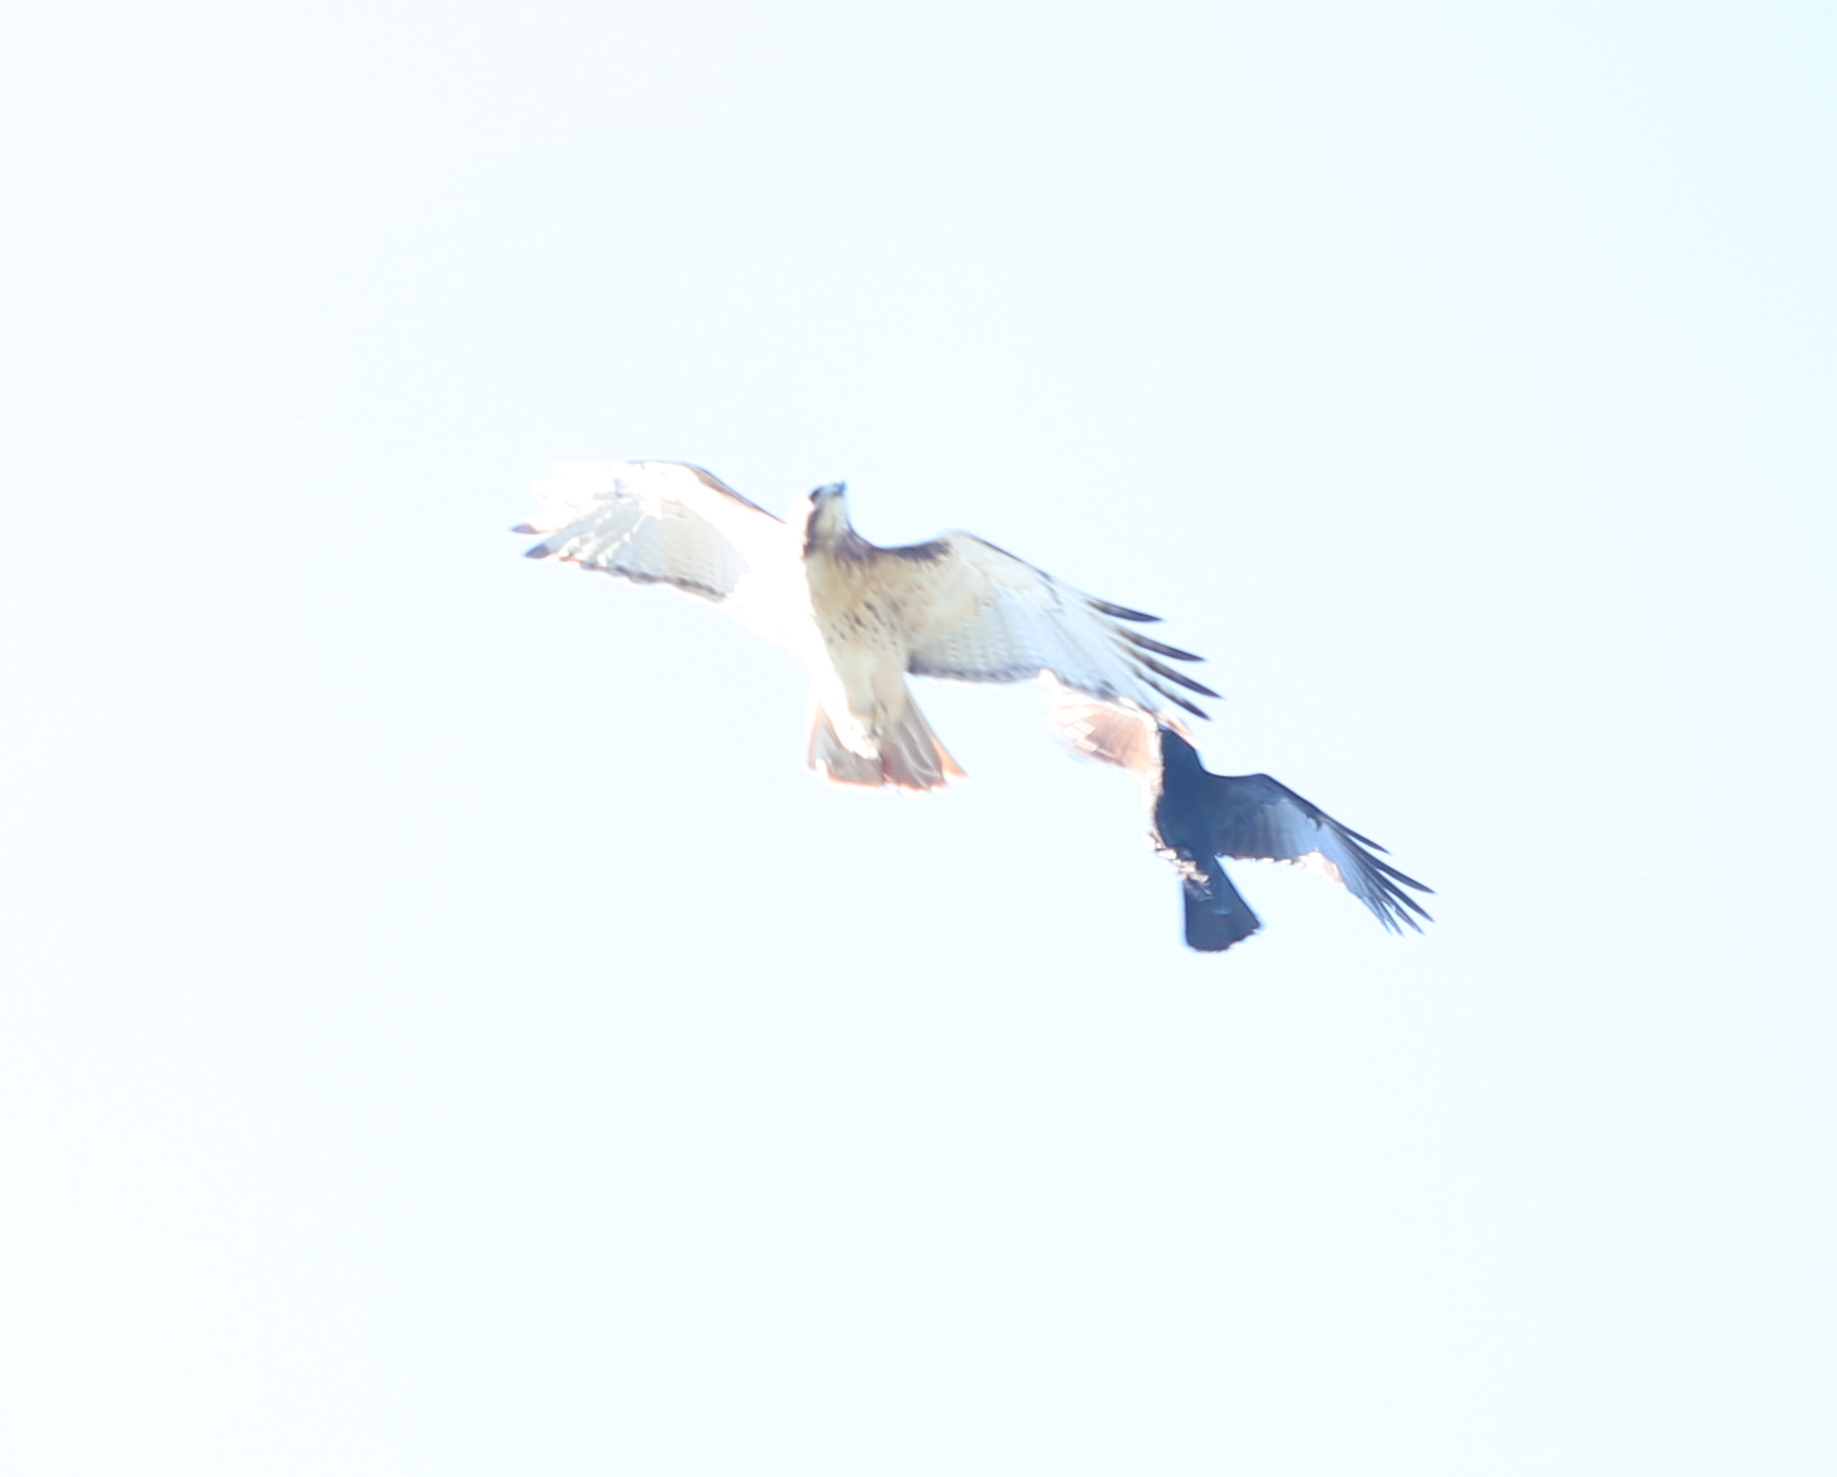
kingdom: Animalia
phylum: Chordata
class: Aves
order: Accipitriformes
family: Accipitridae
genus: Buteo
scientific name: Buteo jamaicensis
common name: Red-tailed hawk
